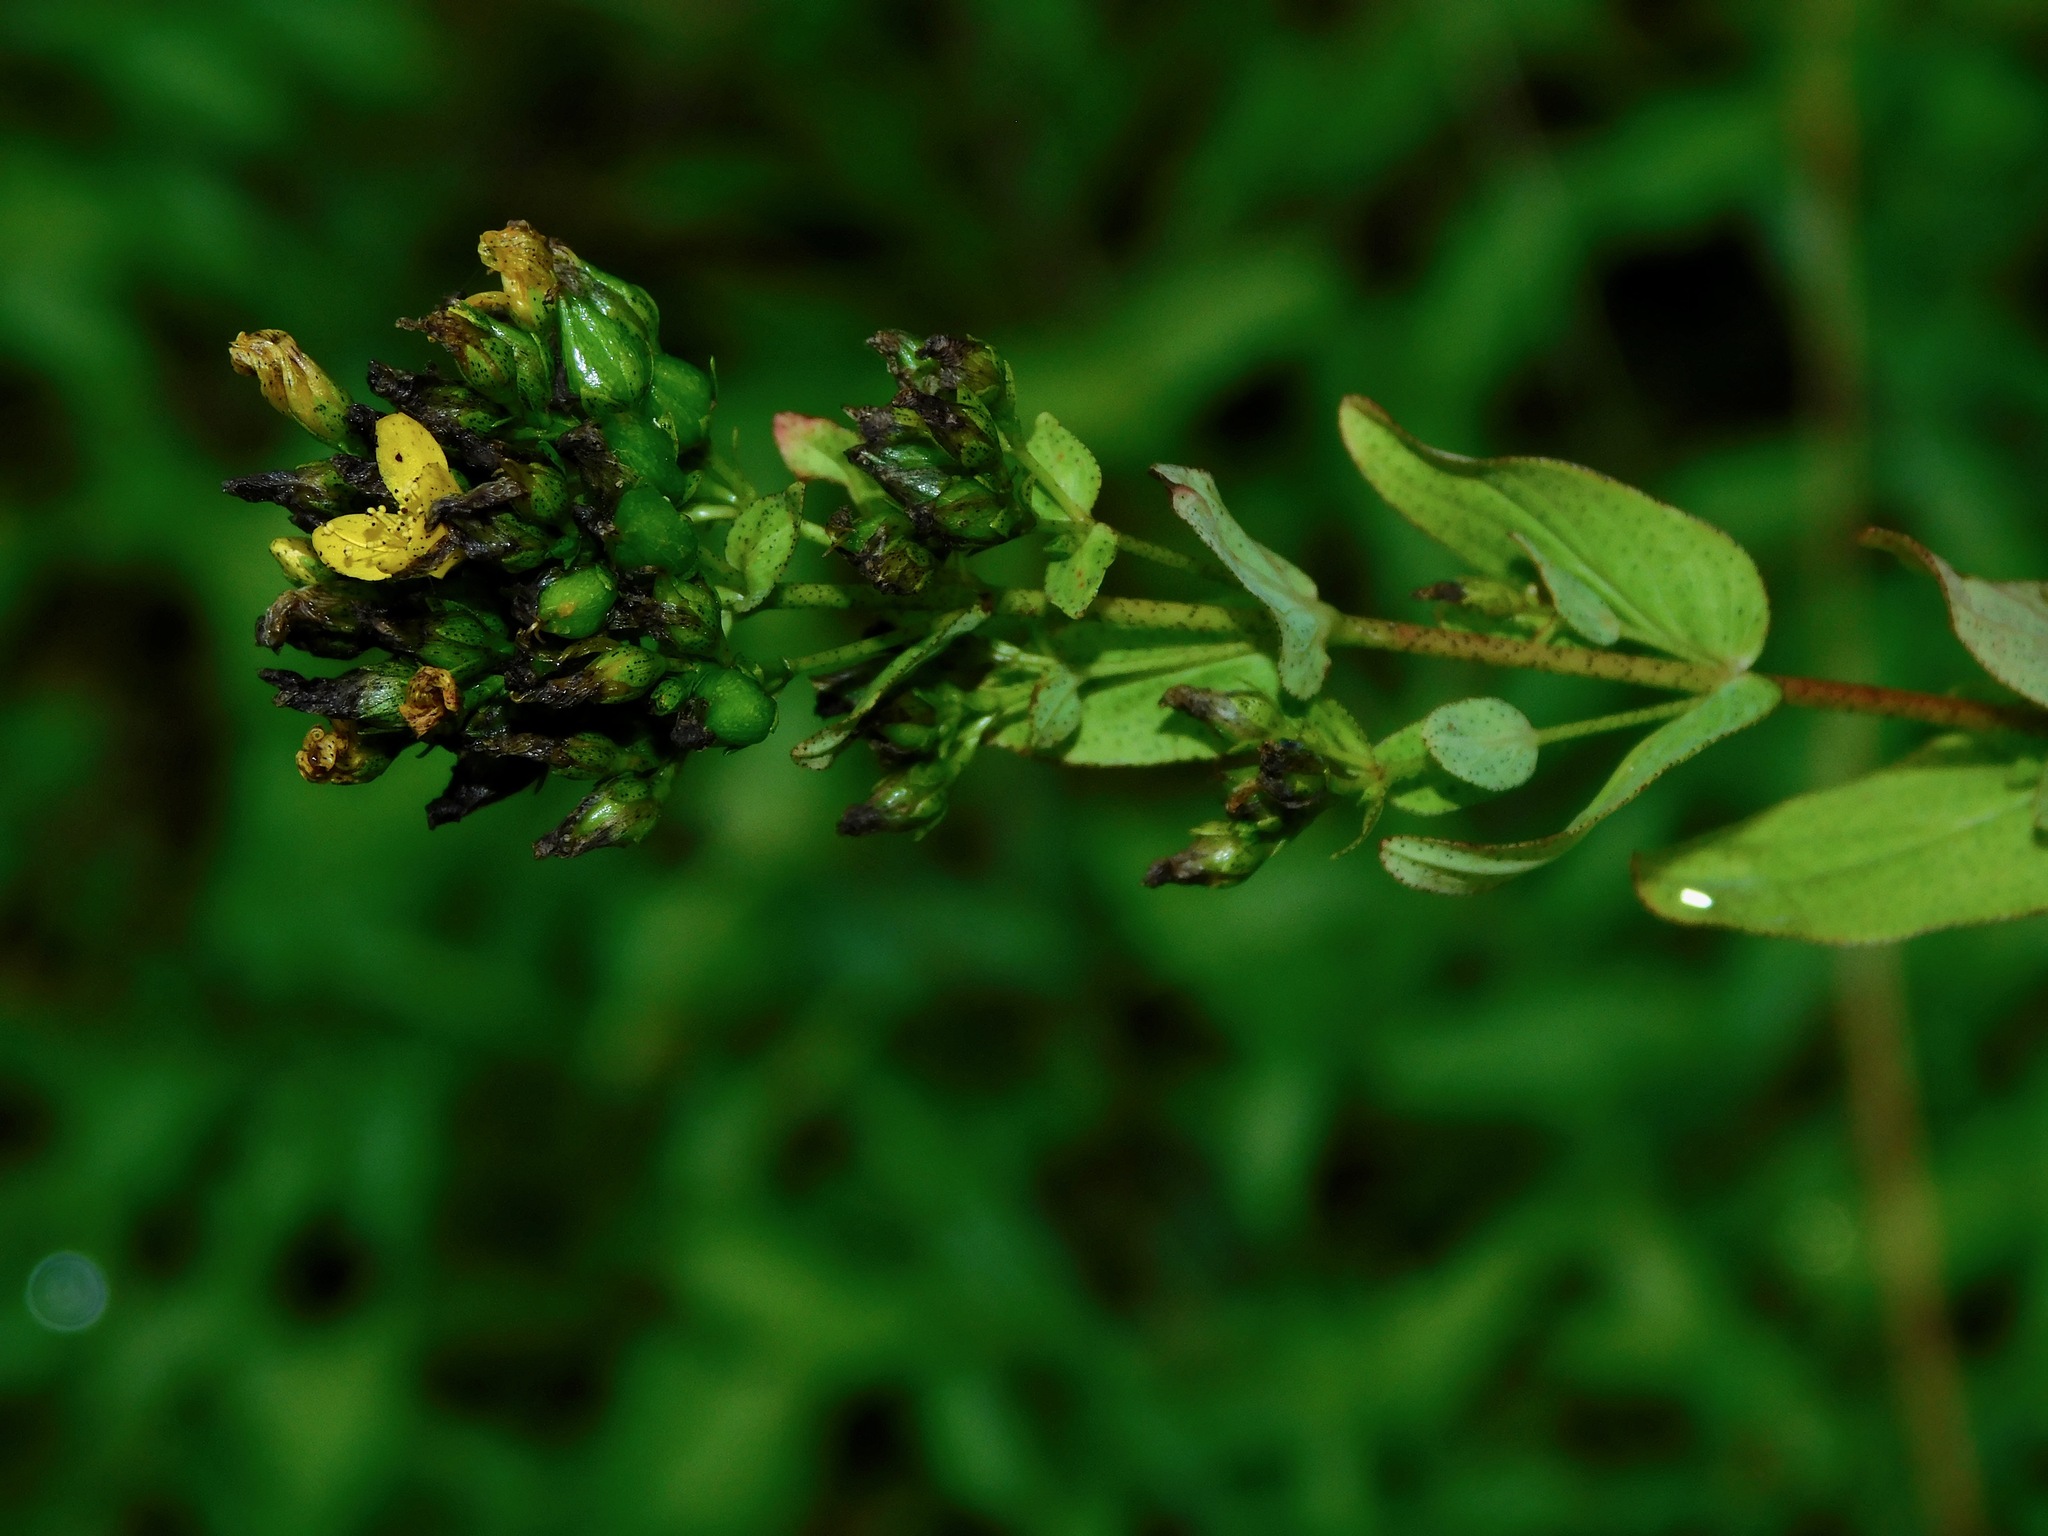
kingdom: Plantae
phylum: Tracheophyta
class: Magnoliopsida
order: Malpighiales
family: Hypericaceae
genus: Hypericum
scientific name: Hypericum punctatum
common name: Spotted st. john's-wort
